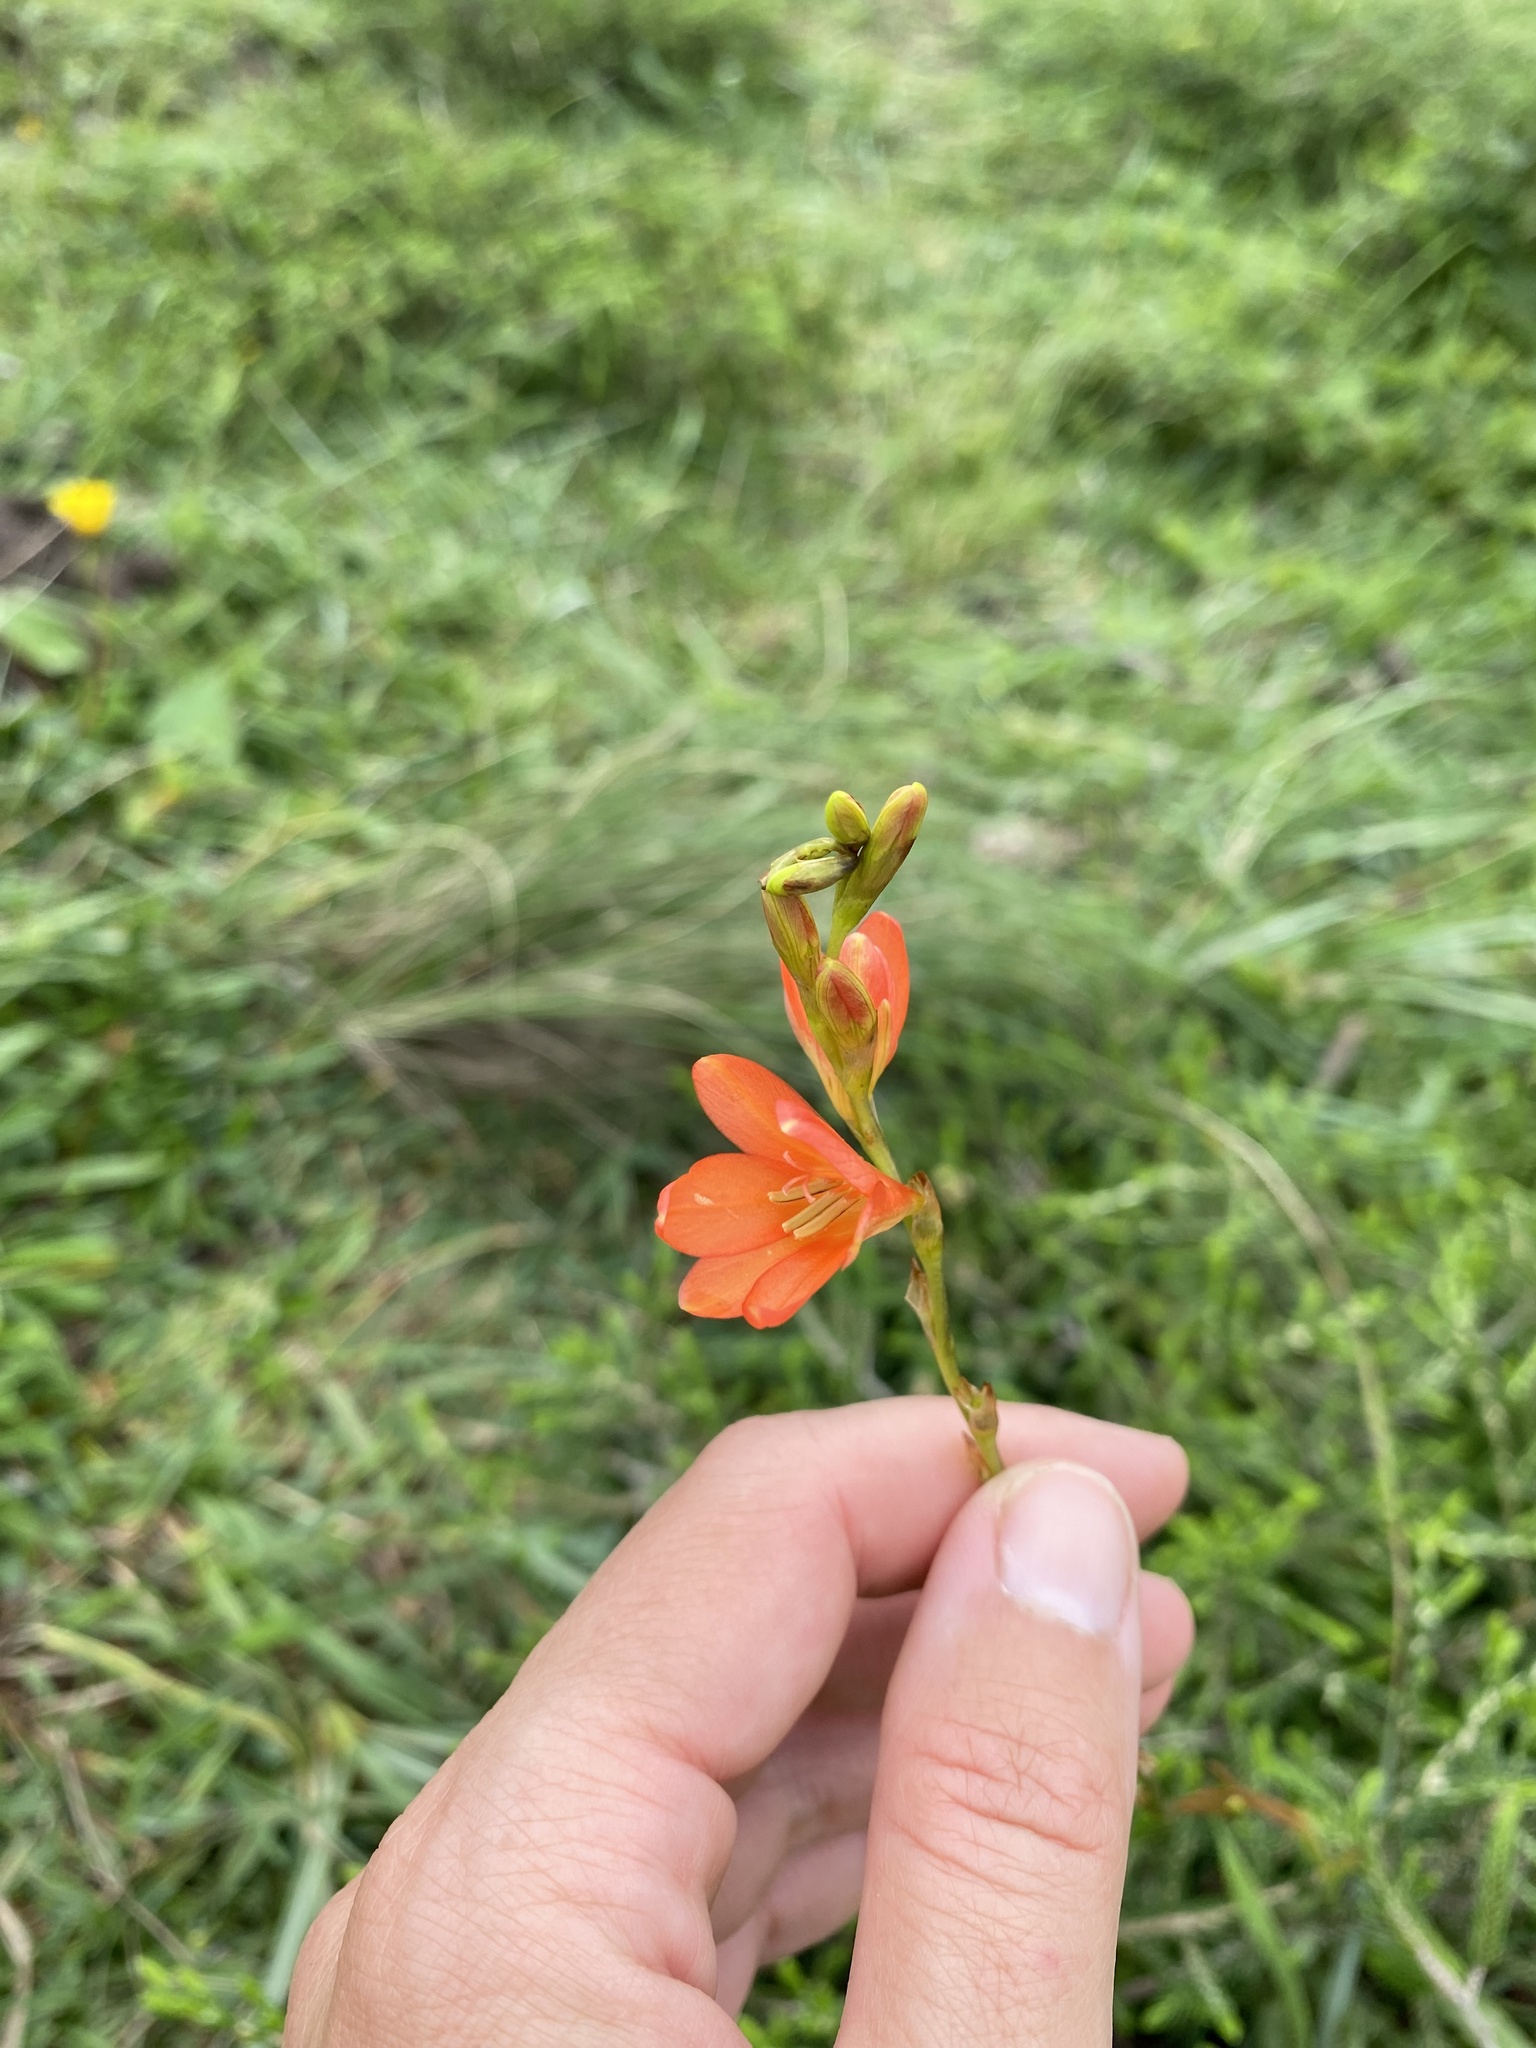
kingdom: Plantae
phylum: Tracheophyta
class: Liliopsida
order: Asparagales
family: Iridaceae
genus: Tritonia
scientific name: Tritonia disticha
